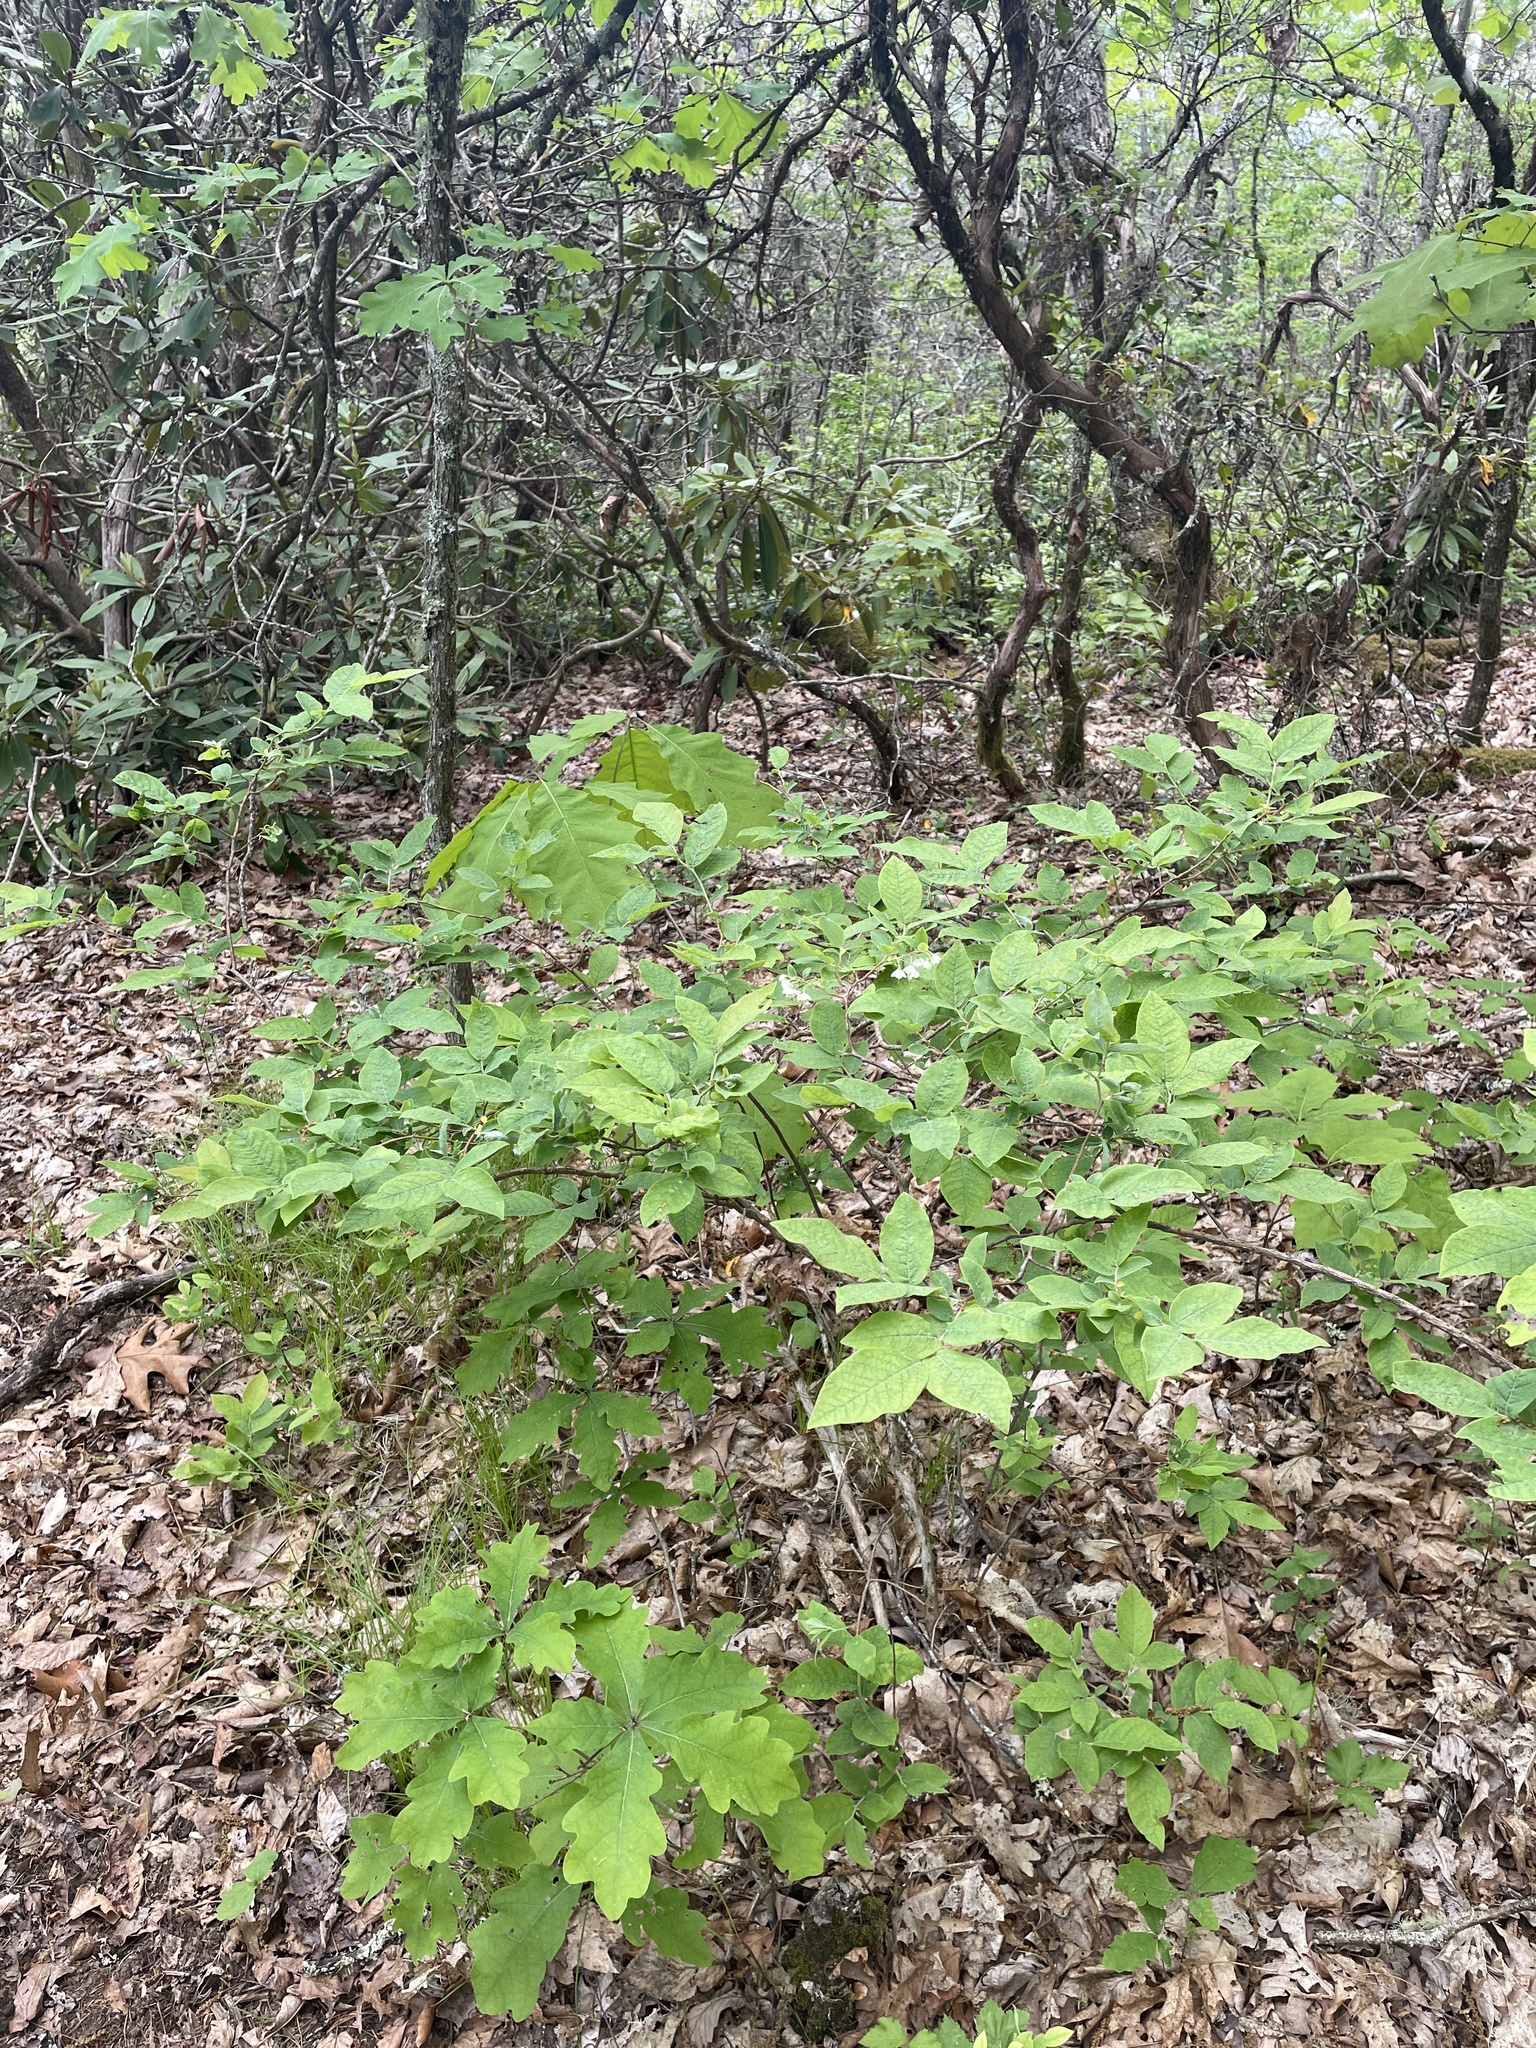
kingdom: Plantae
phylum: Tracheophyta
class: Magnoliopsida
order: Ericales
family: Ericaceae
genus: Vaccinium
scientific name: Vaccinium stamineum
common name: Deerberry
